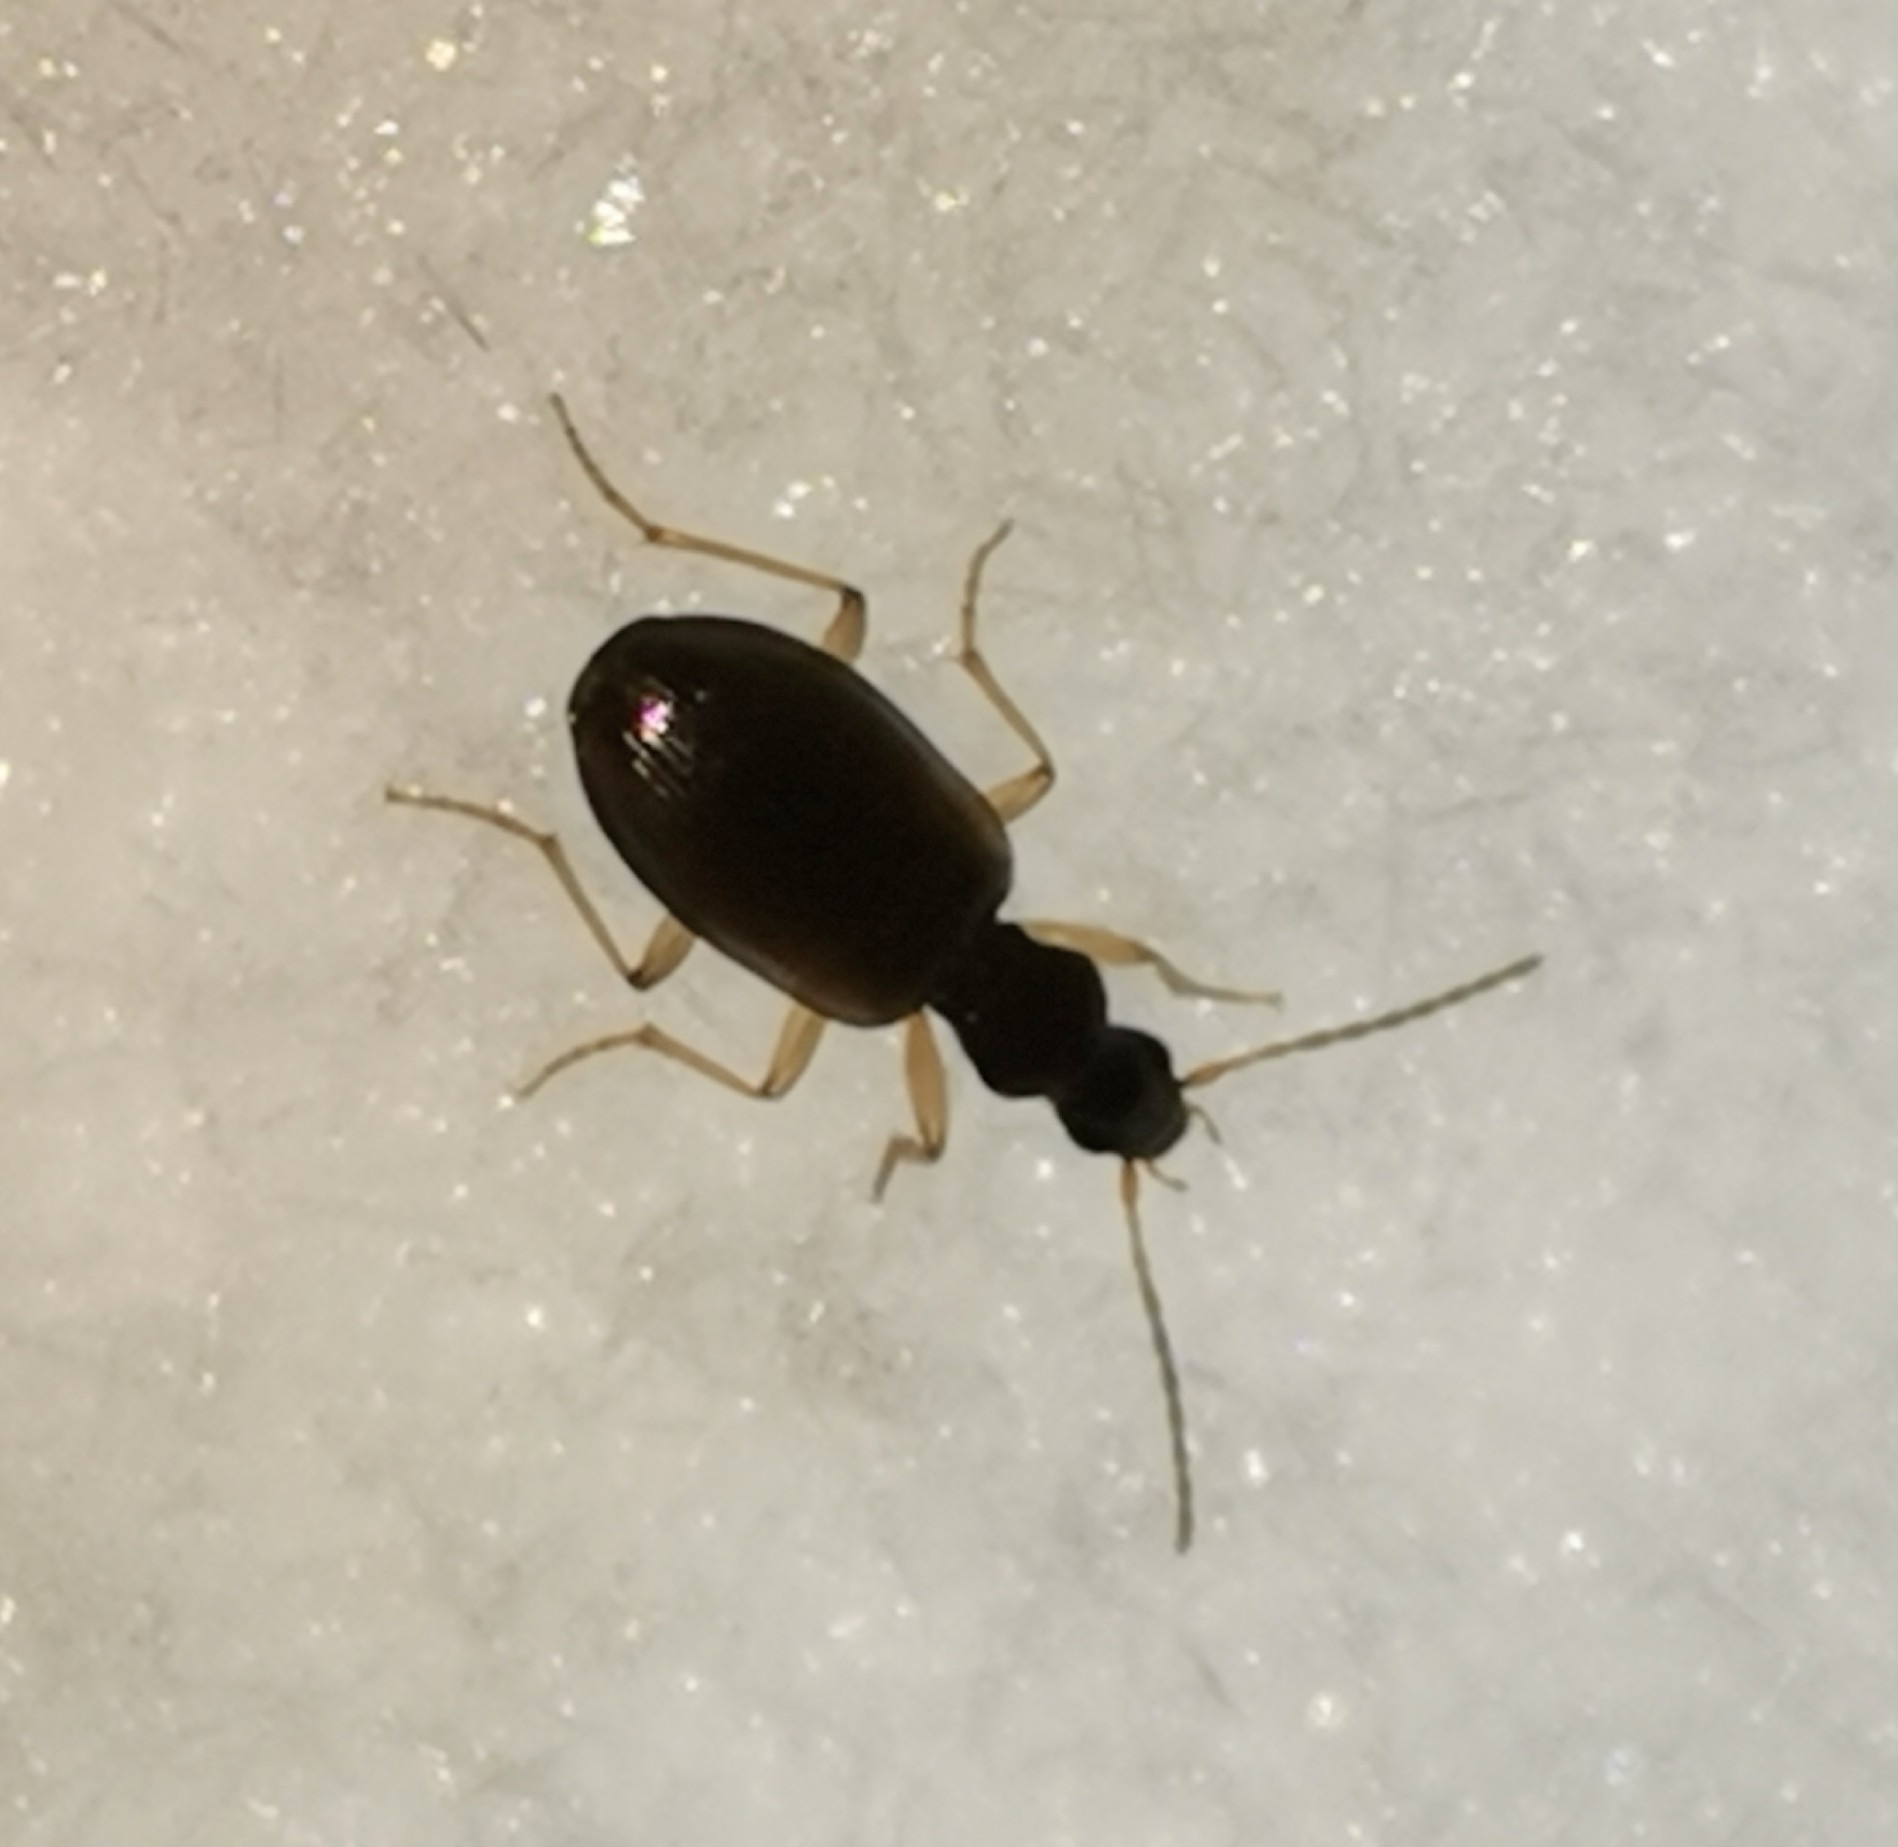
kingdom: Animalia
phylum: Arthropoda
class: Insecta
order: Coleoptera
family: Carabidae
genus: Oxypselaphus
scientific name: Oxypselaphus obscurus
